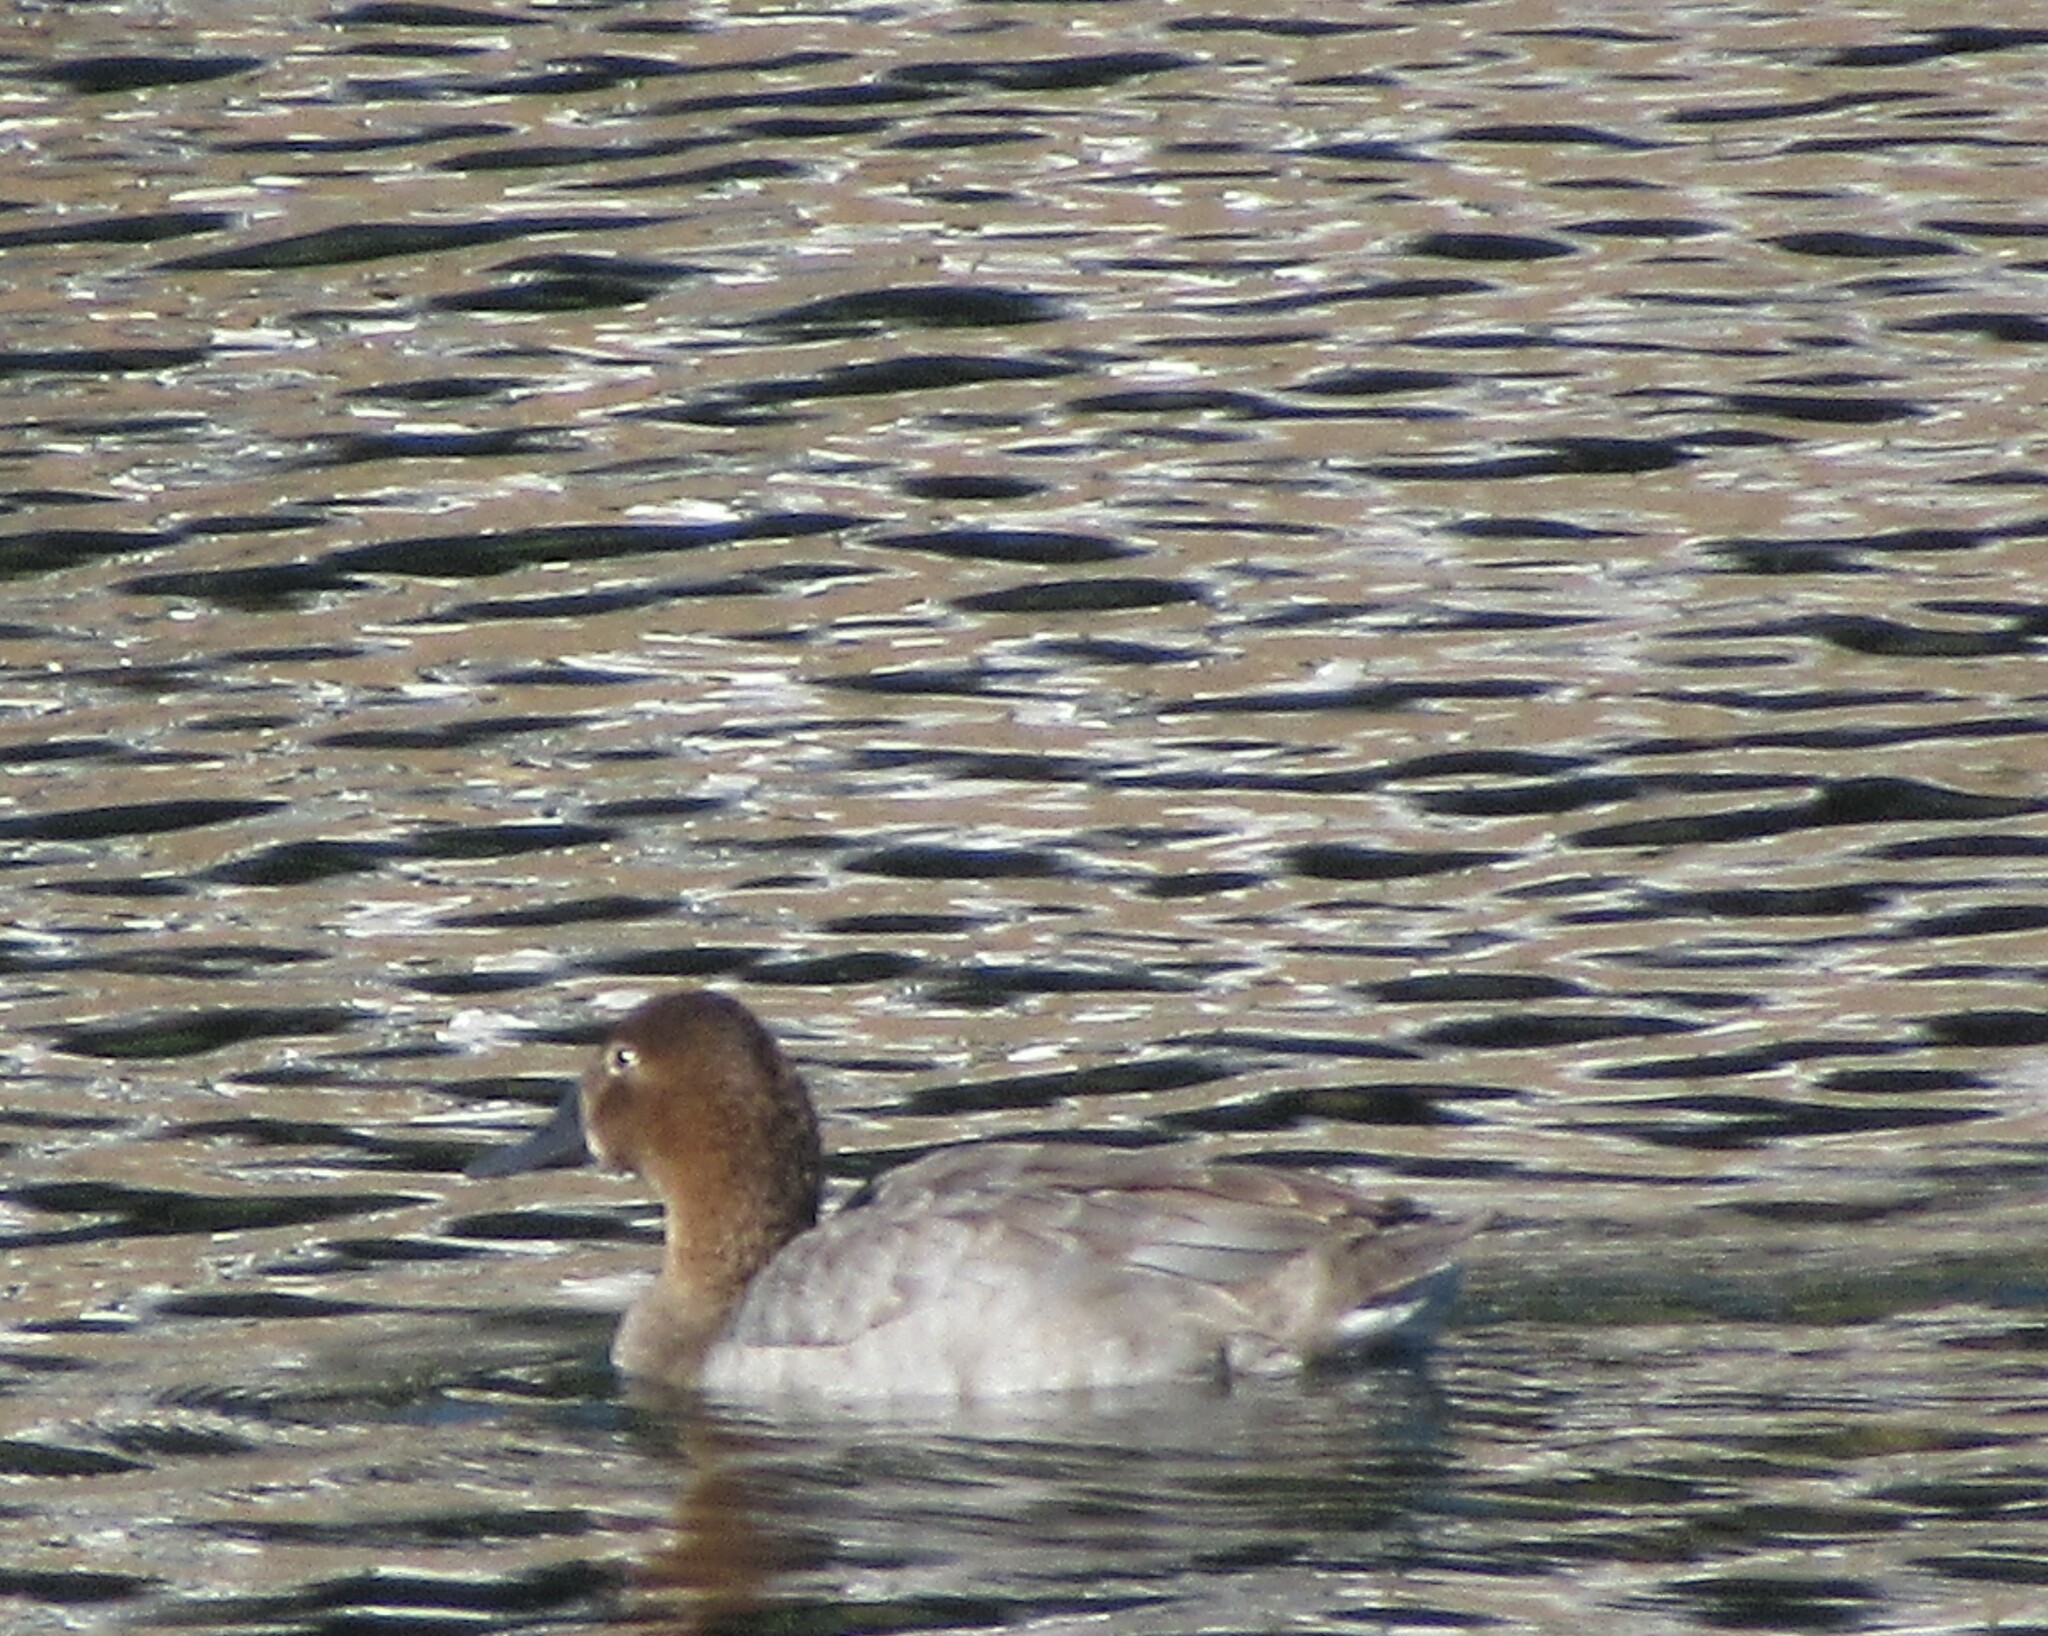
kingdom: Animalia
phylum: Chordata
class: Aves
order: Anseriformes
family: Anatidae
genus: Aythya
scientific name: Aythya valisineria
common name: Canvasback
